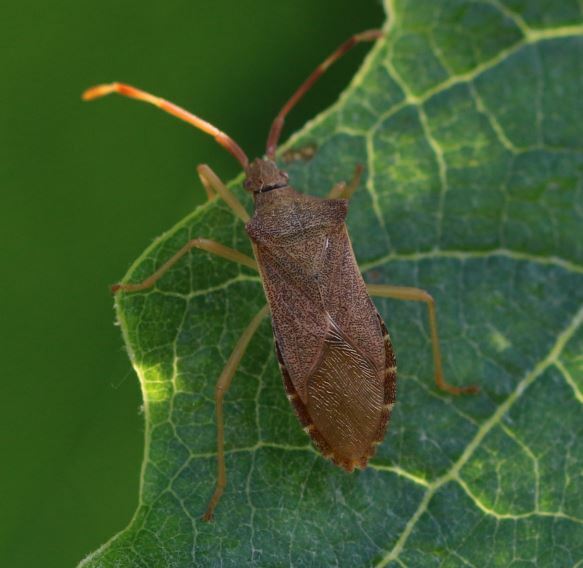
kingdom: Animalia
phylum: Arthropoda
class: Insecta
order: Hemiptera
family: Coreidae
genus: Gonocerus
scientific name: Gonocerus acuteangulatus
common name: Box bug
